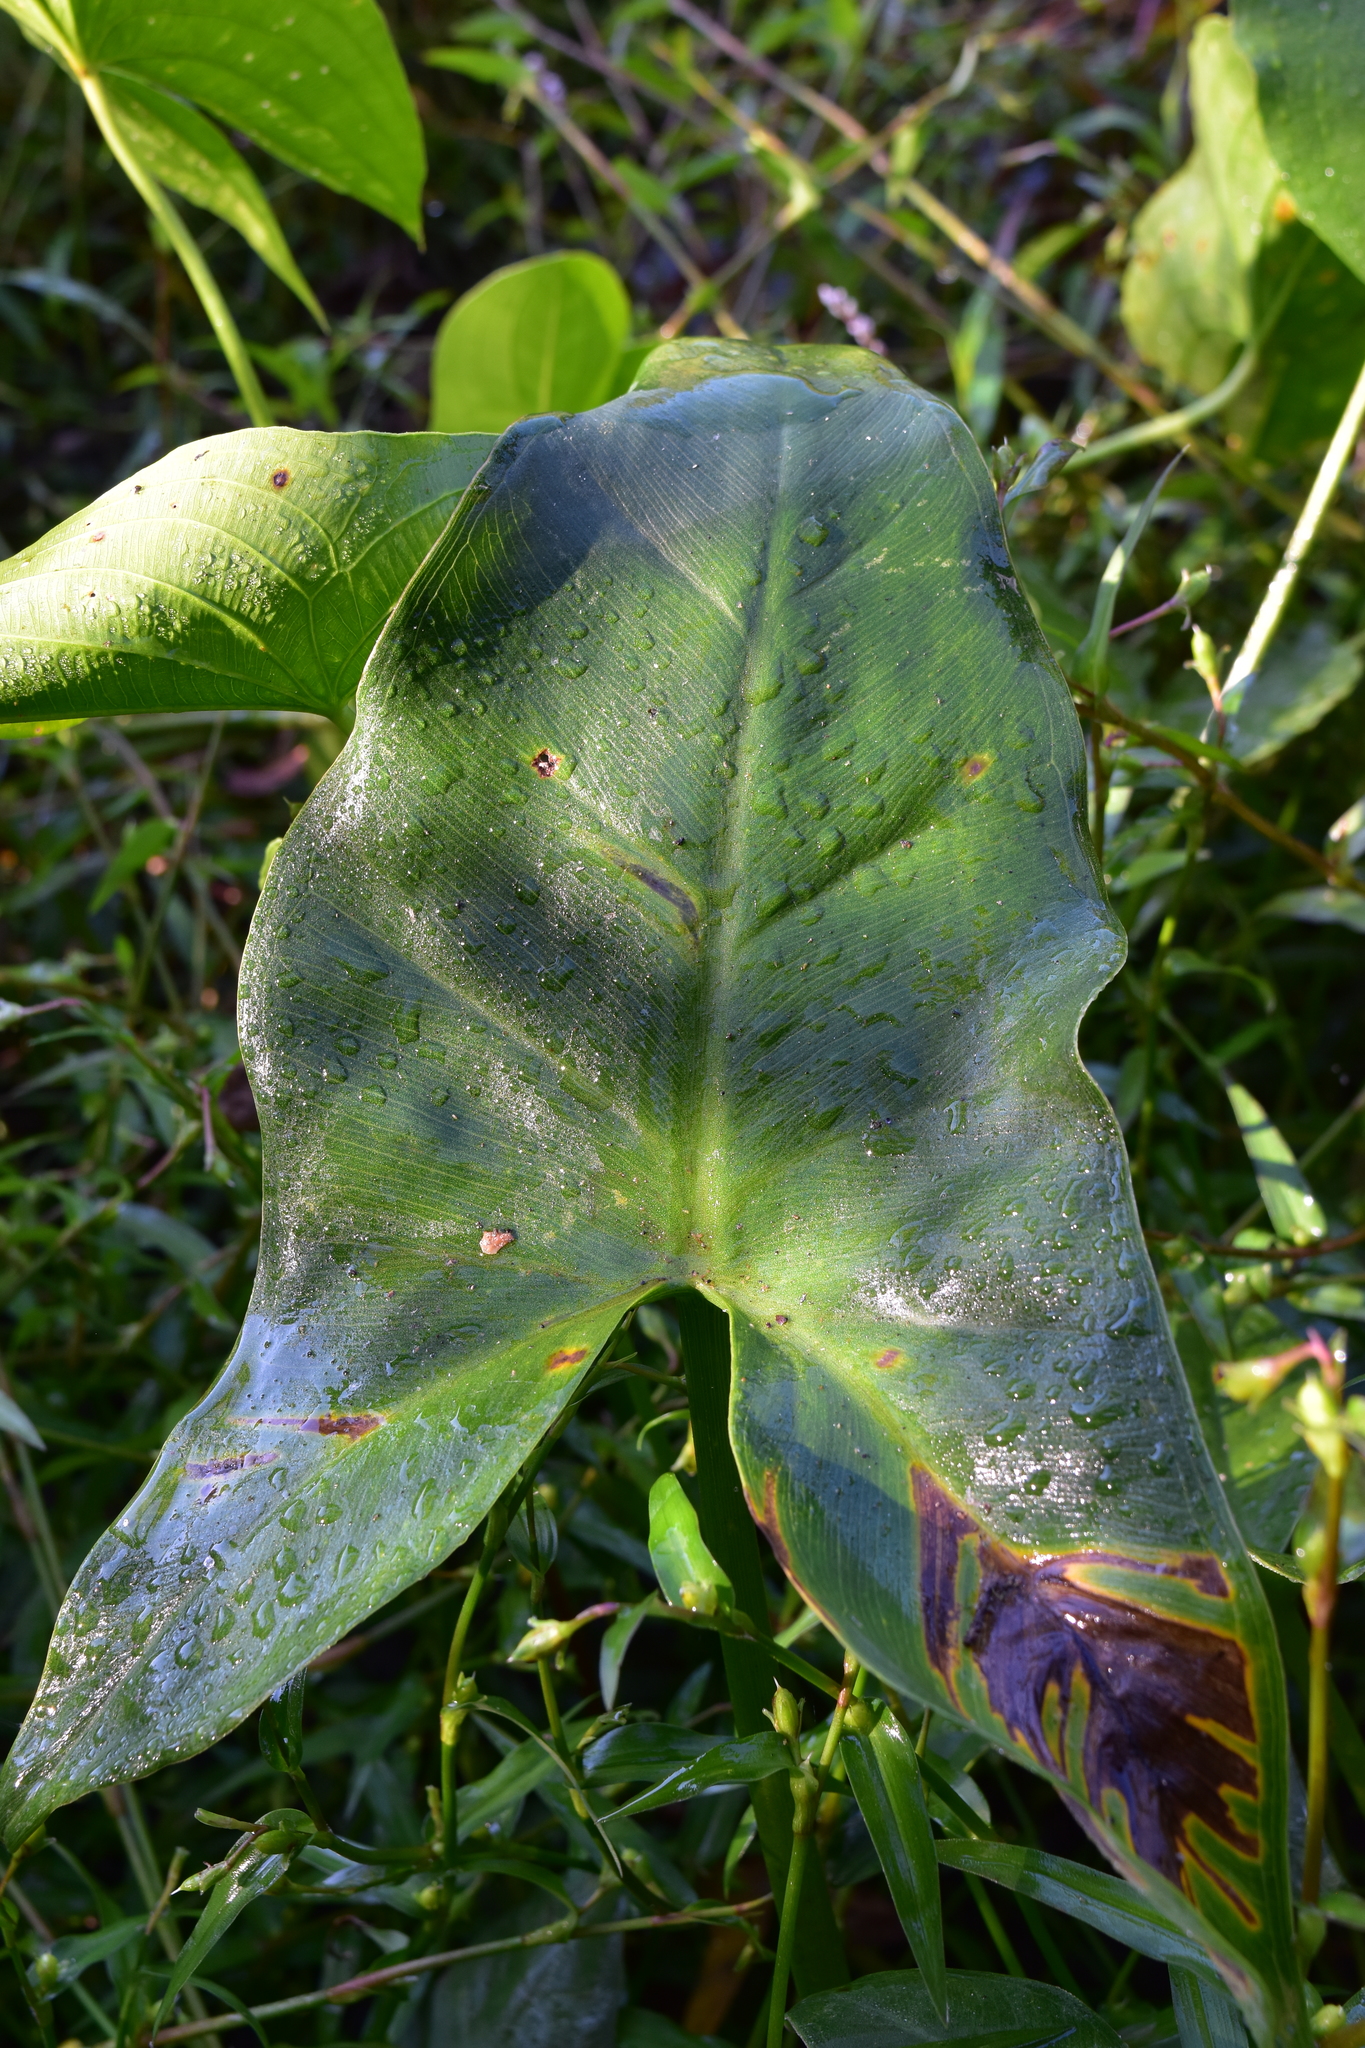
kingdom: Plantae
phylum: Tracheophyta
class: Liliopsida
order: Alismatales
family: Araceae
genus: Peltandra
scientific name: Peltandra virginica
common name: Arrow arum
